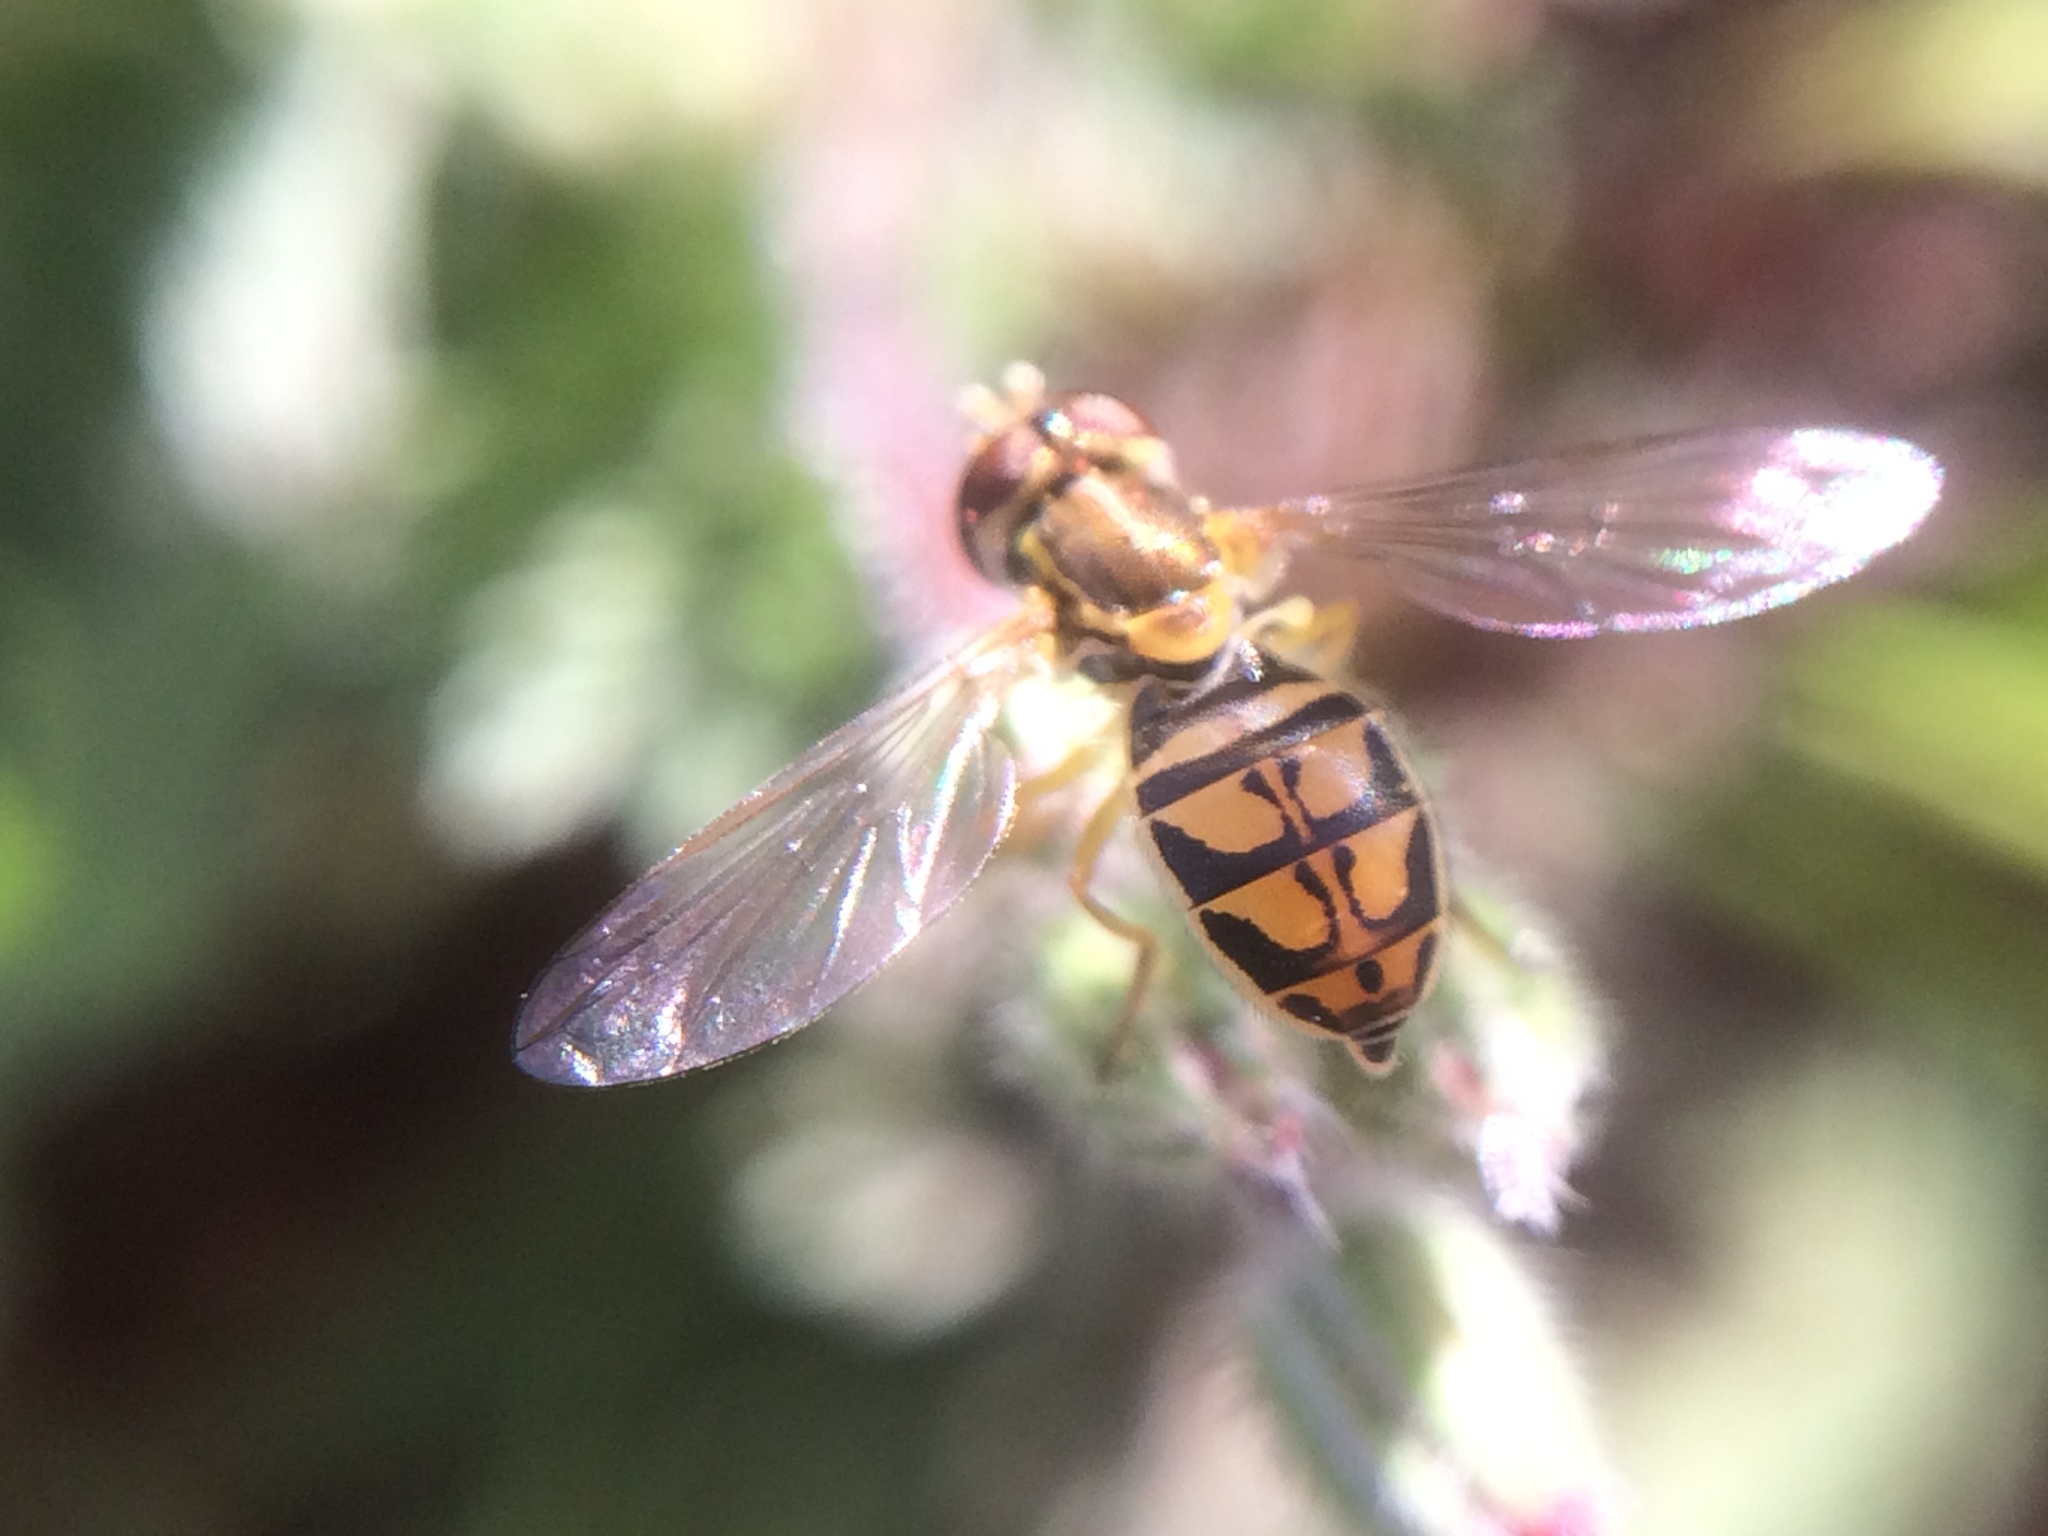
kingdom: Animalia
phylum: Arthropoda
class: Insecta
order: Diptera
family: Syrphidae
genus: Toxomerus
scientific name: Toxomerus marginatus
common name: Syrphid fly
